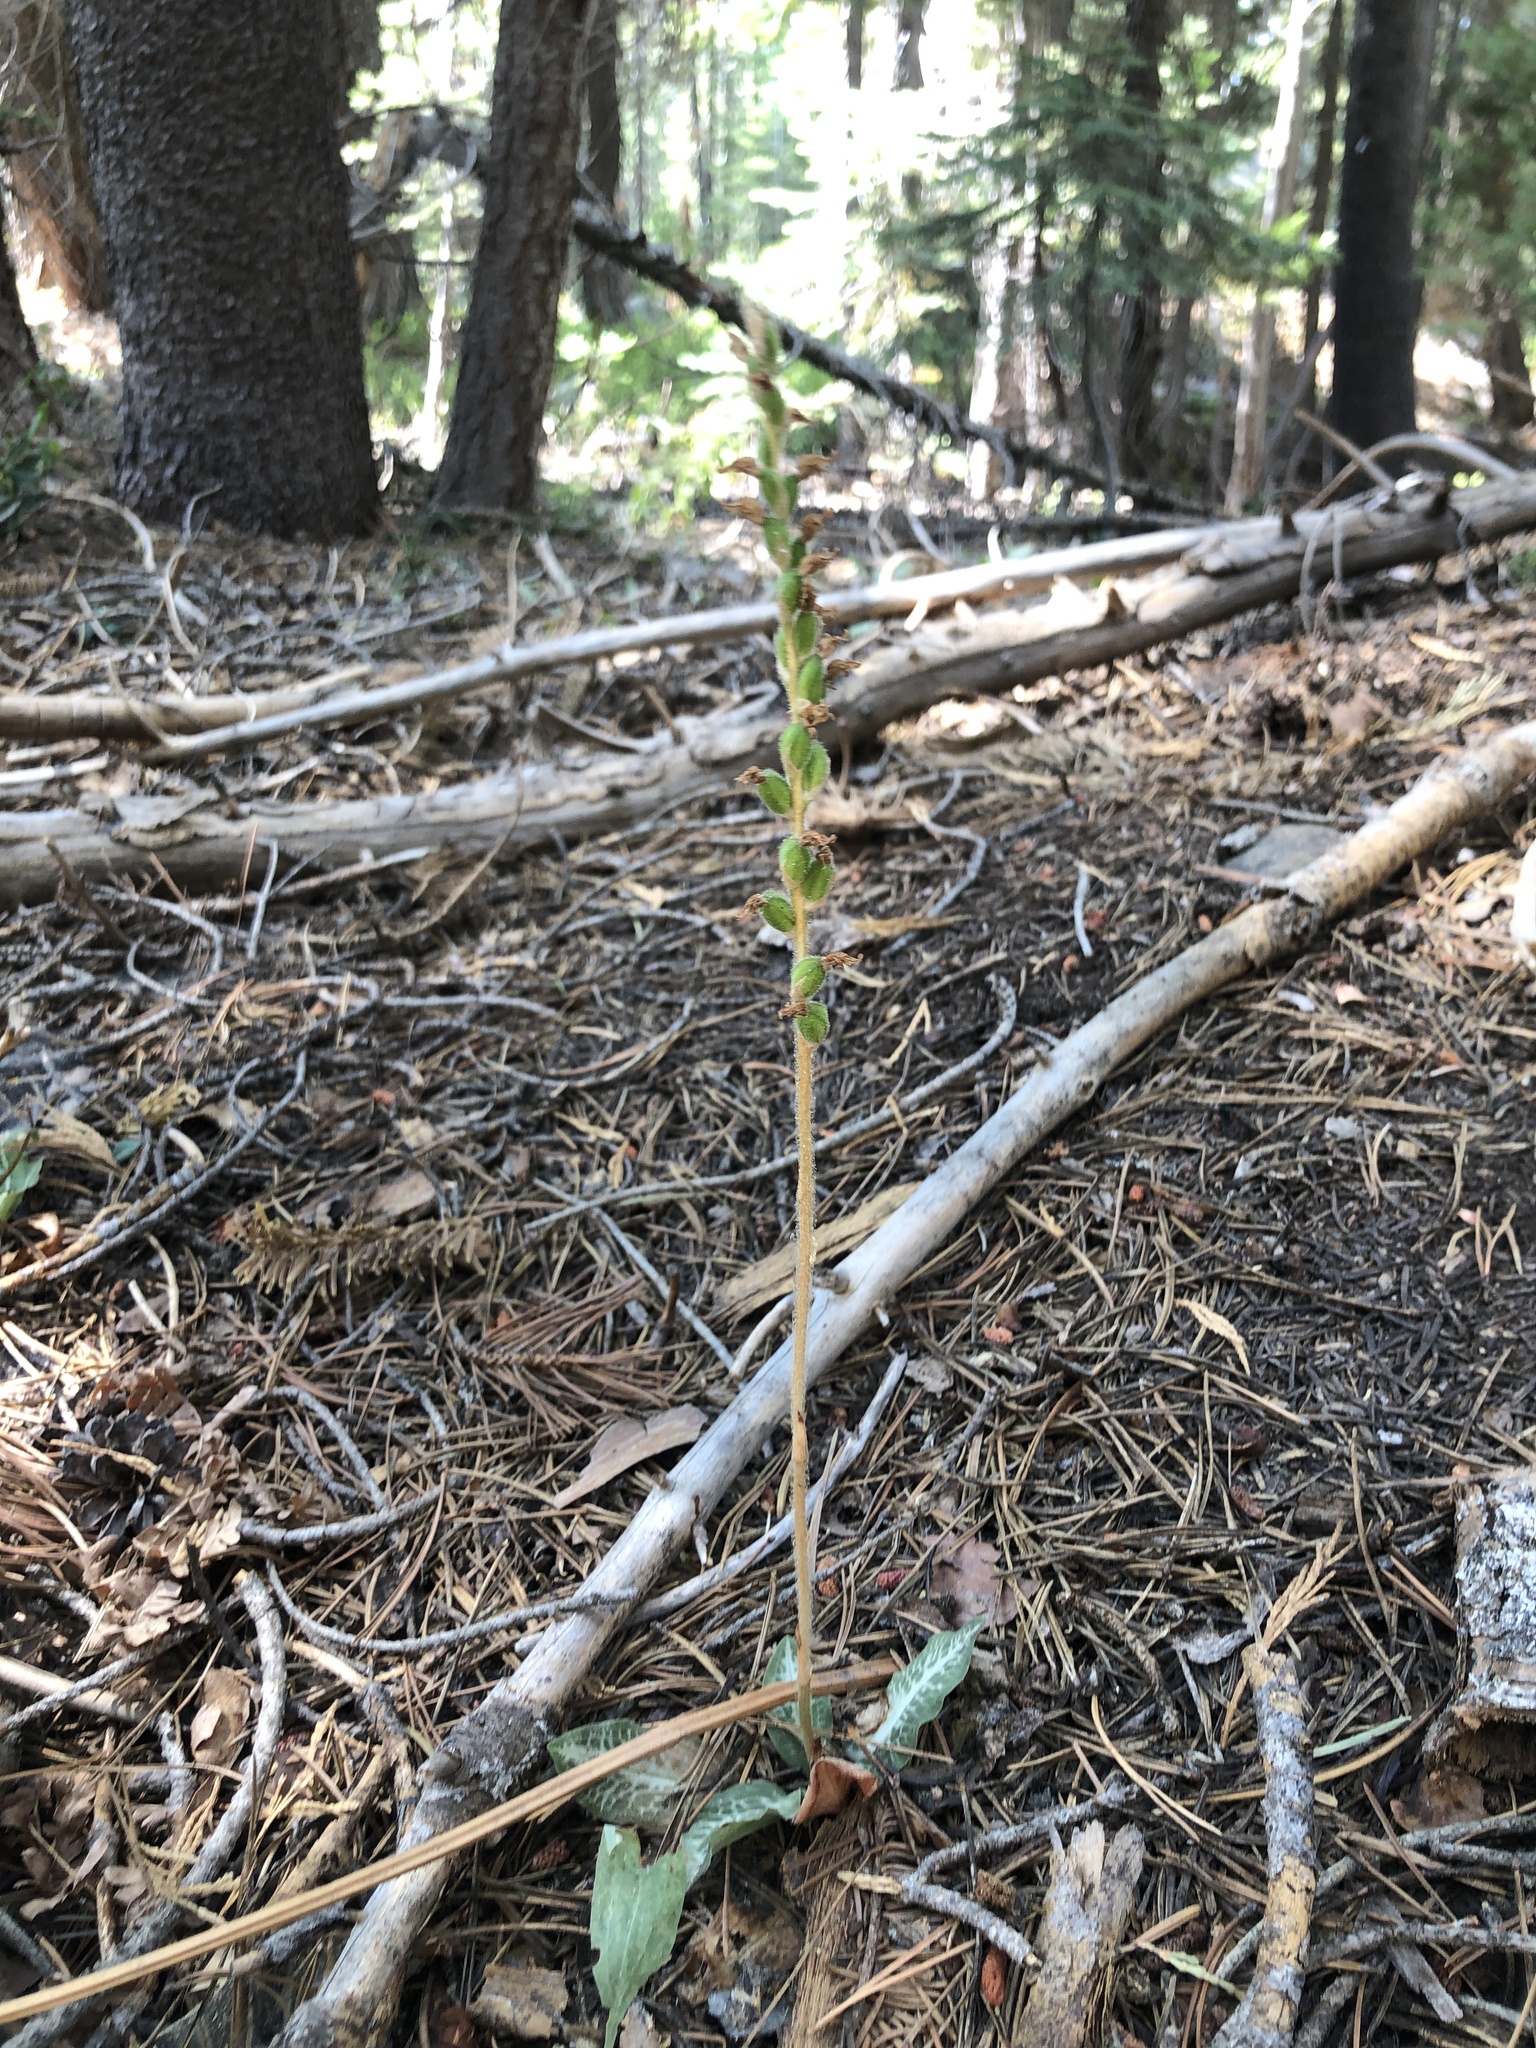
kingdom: Plantae
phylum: Tracheophyta
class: Liliopsida
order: Asparagales
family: Orchidaceae
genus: Goodyera
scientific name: Goodyera oblongifolia
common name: Giant rattlesnake-plantain
